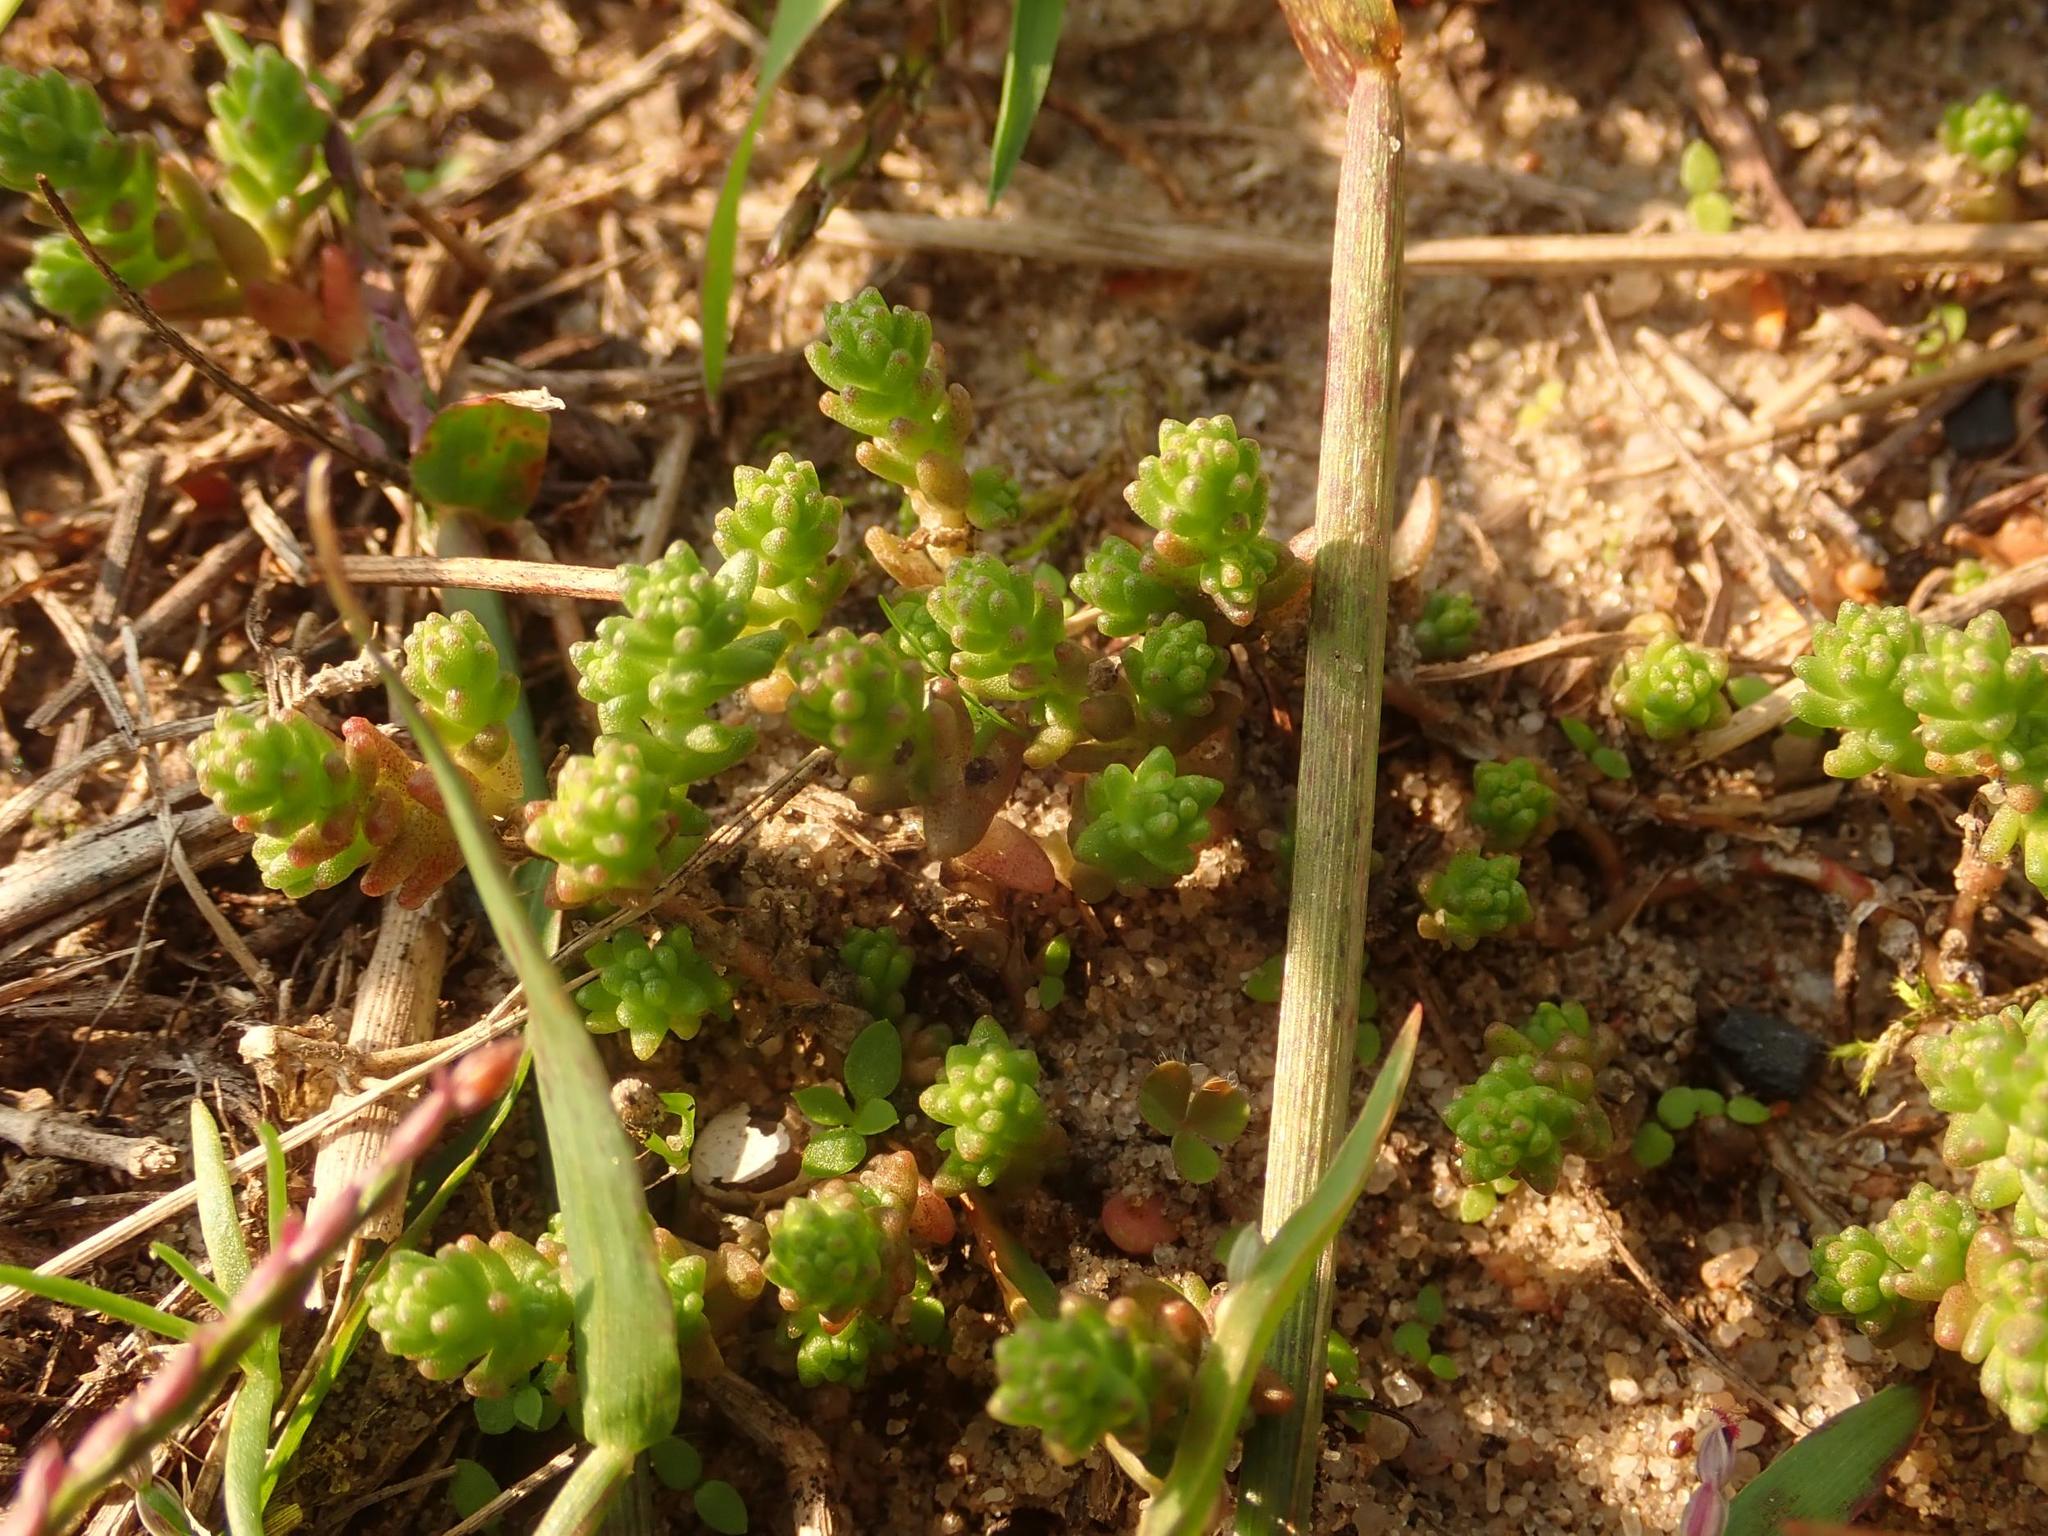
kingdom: Plantae
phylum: Tracheophyta
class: Magnoliopsida
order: Saxifragales
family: Crassulaceae
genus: Sedum
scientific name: Sedum acre
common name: Biting stonecrop
